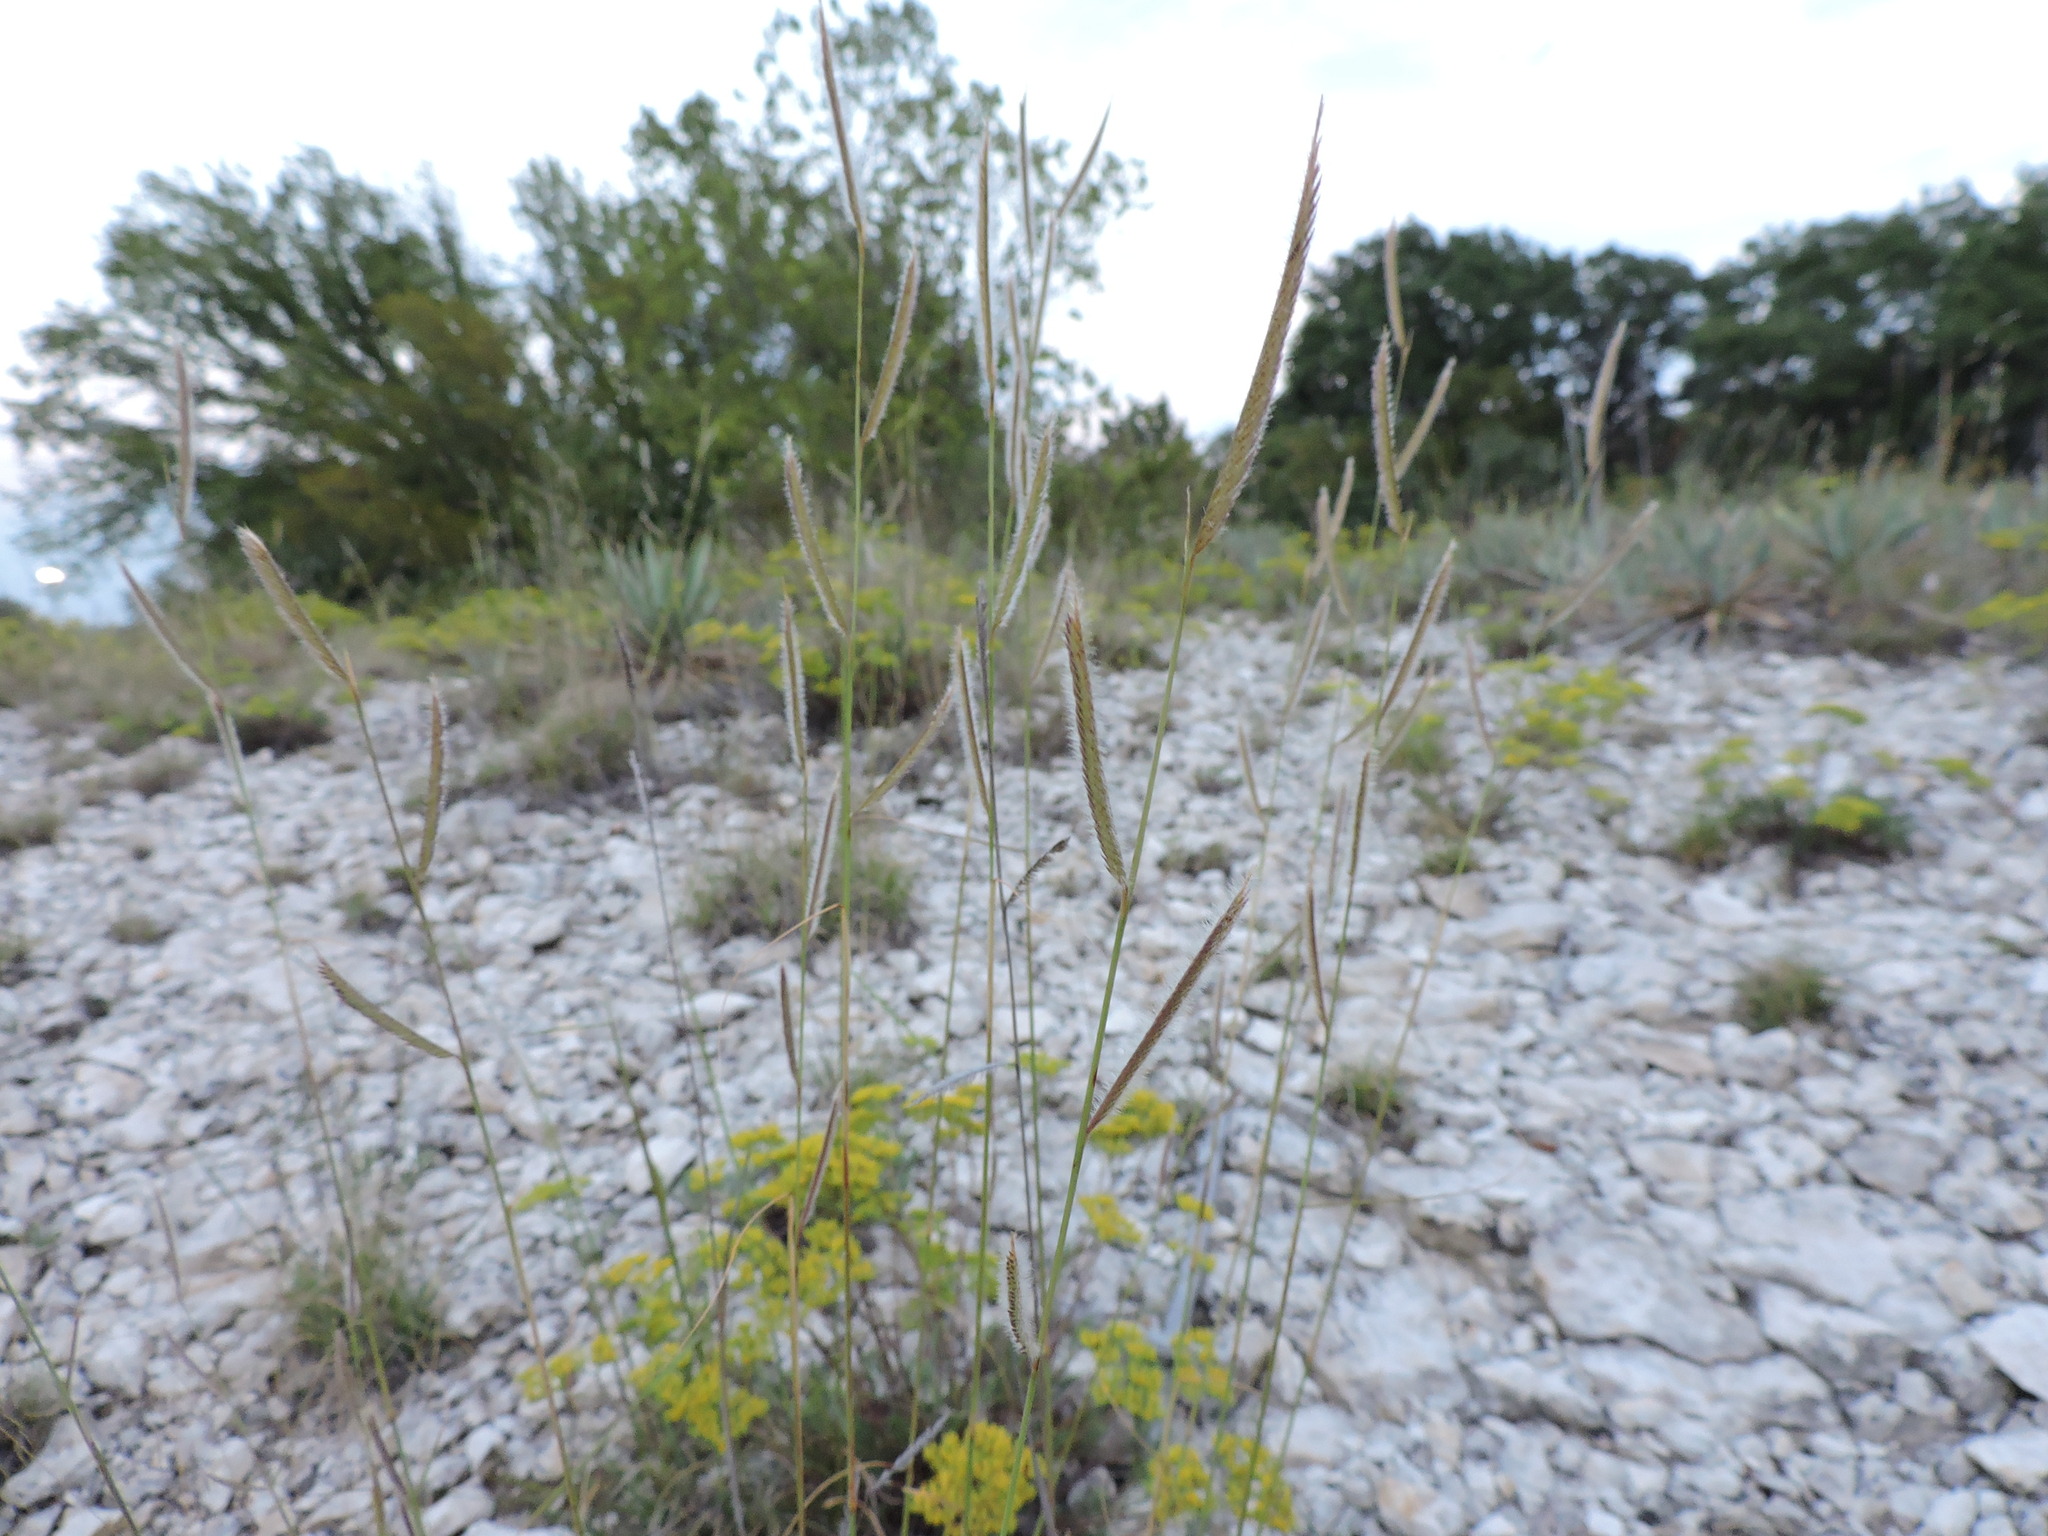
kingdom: Plantae
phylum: Tracheophyta
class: Liliopsida
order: Poales
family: Poaceae
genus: Bouteloua
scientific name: Bouteloua hirsuta
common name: Hairy grama
